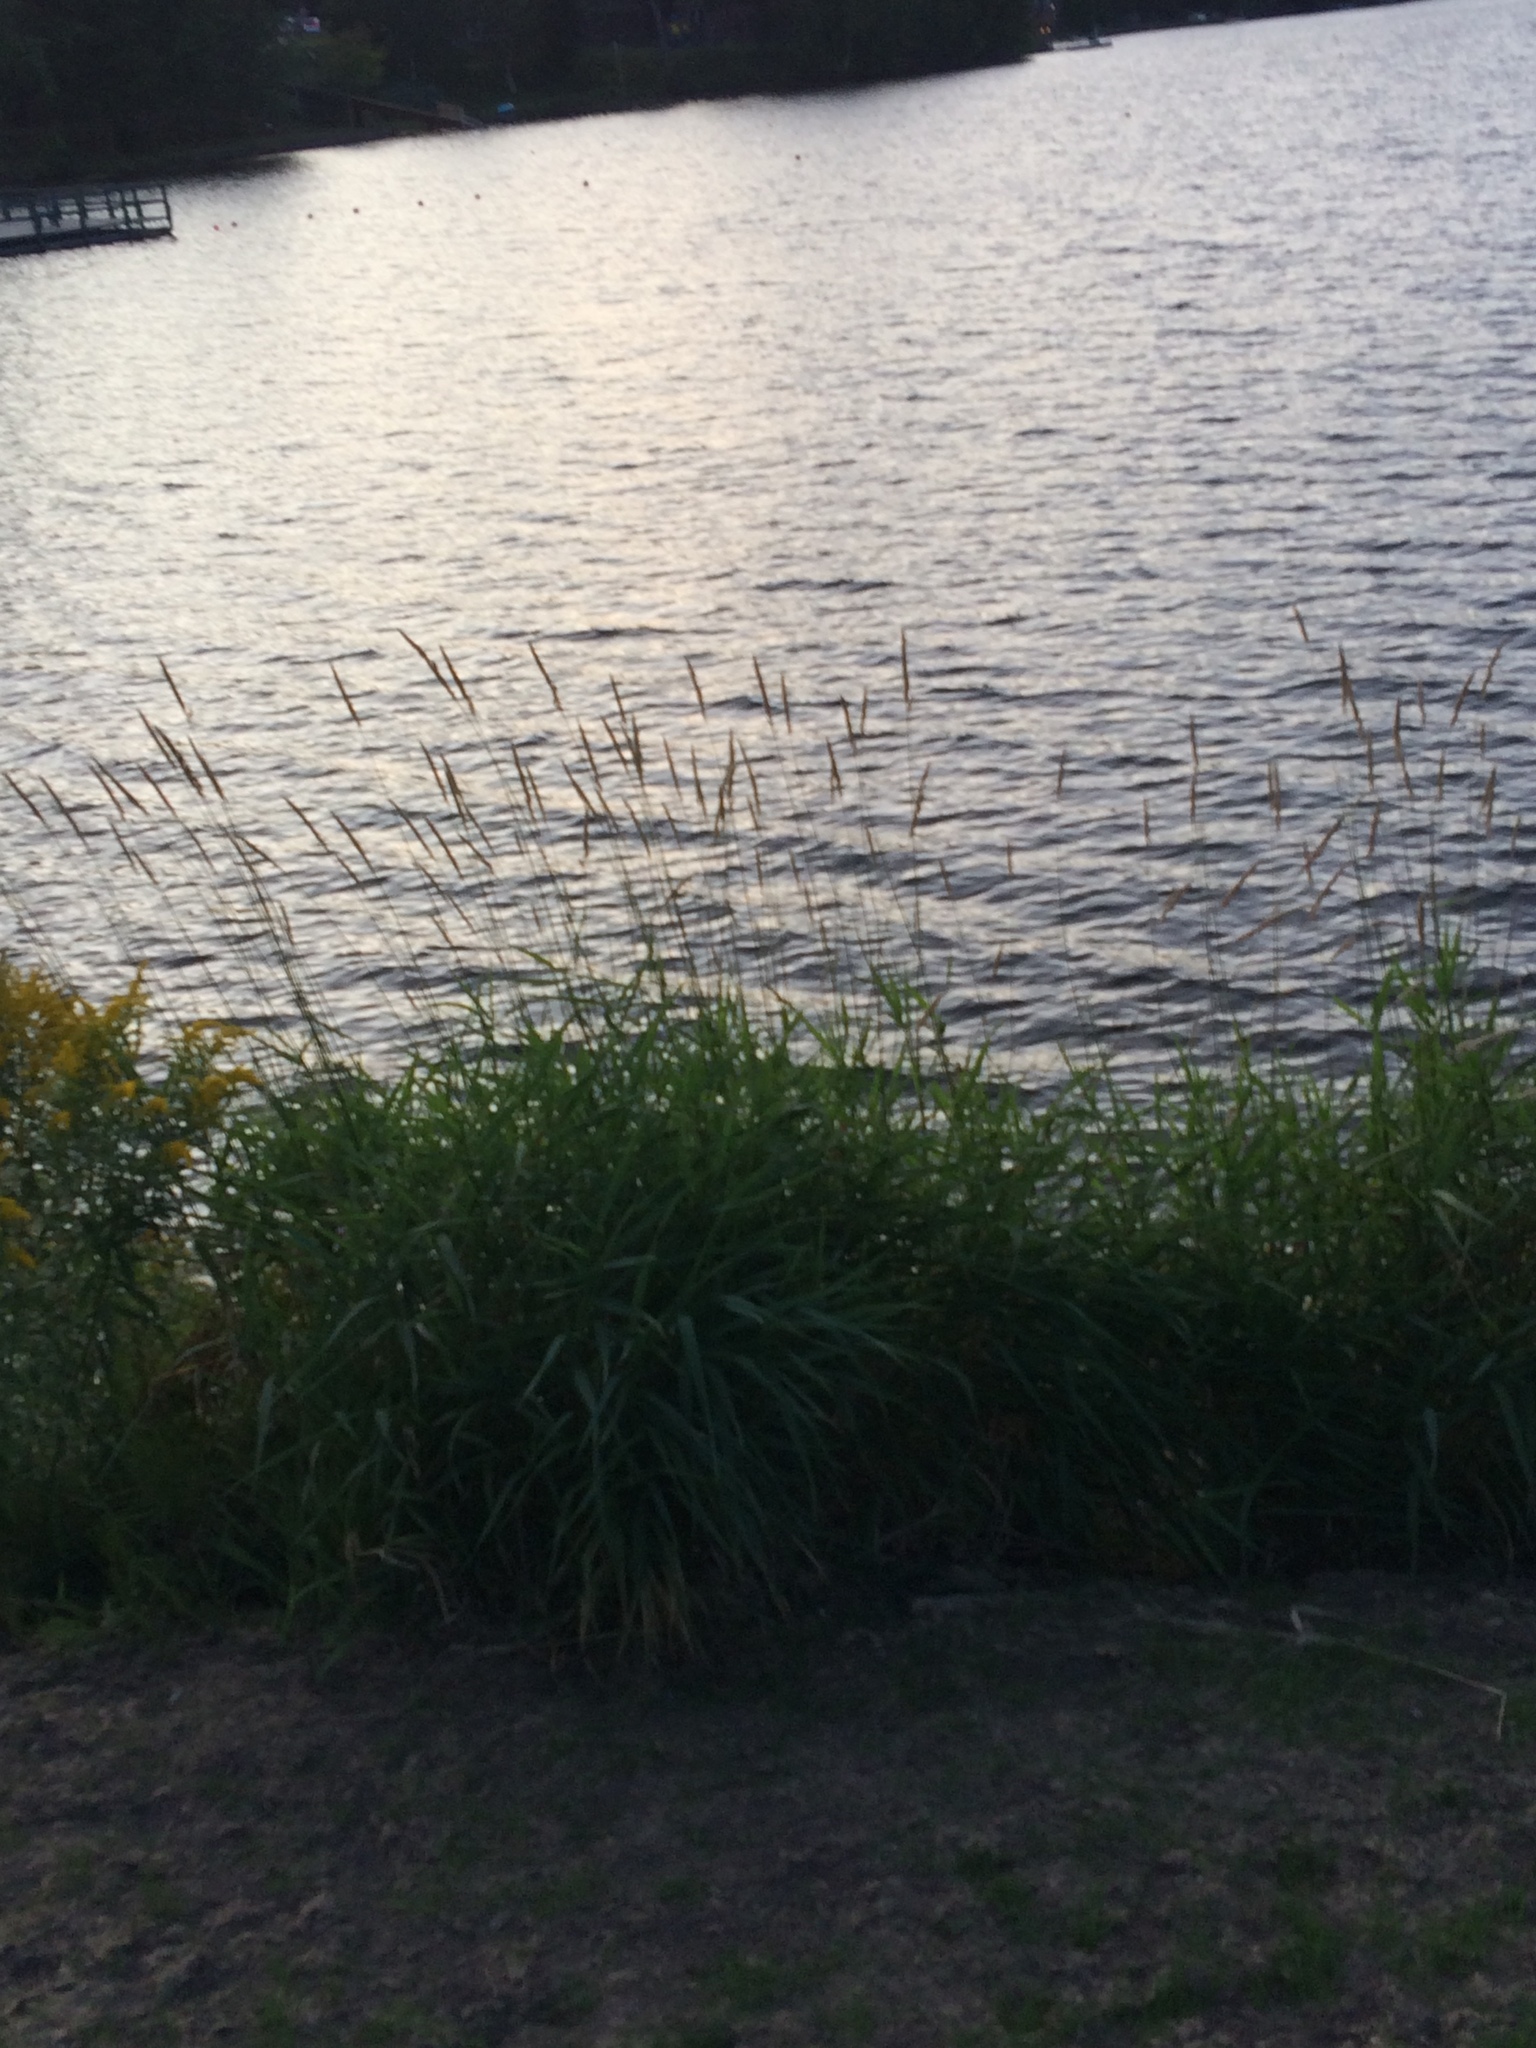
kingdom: Plantae
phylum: Tracheophyta
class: Liliopsida
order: Poales
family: Poaceae
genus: Phalaris
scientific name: Phalaris arundinacea
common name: Reed canary-grass
